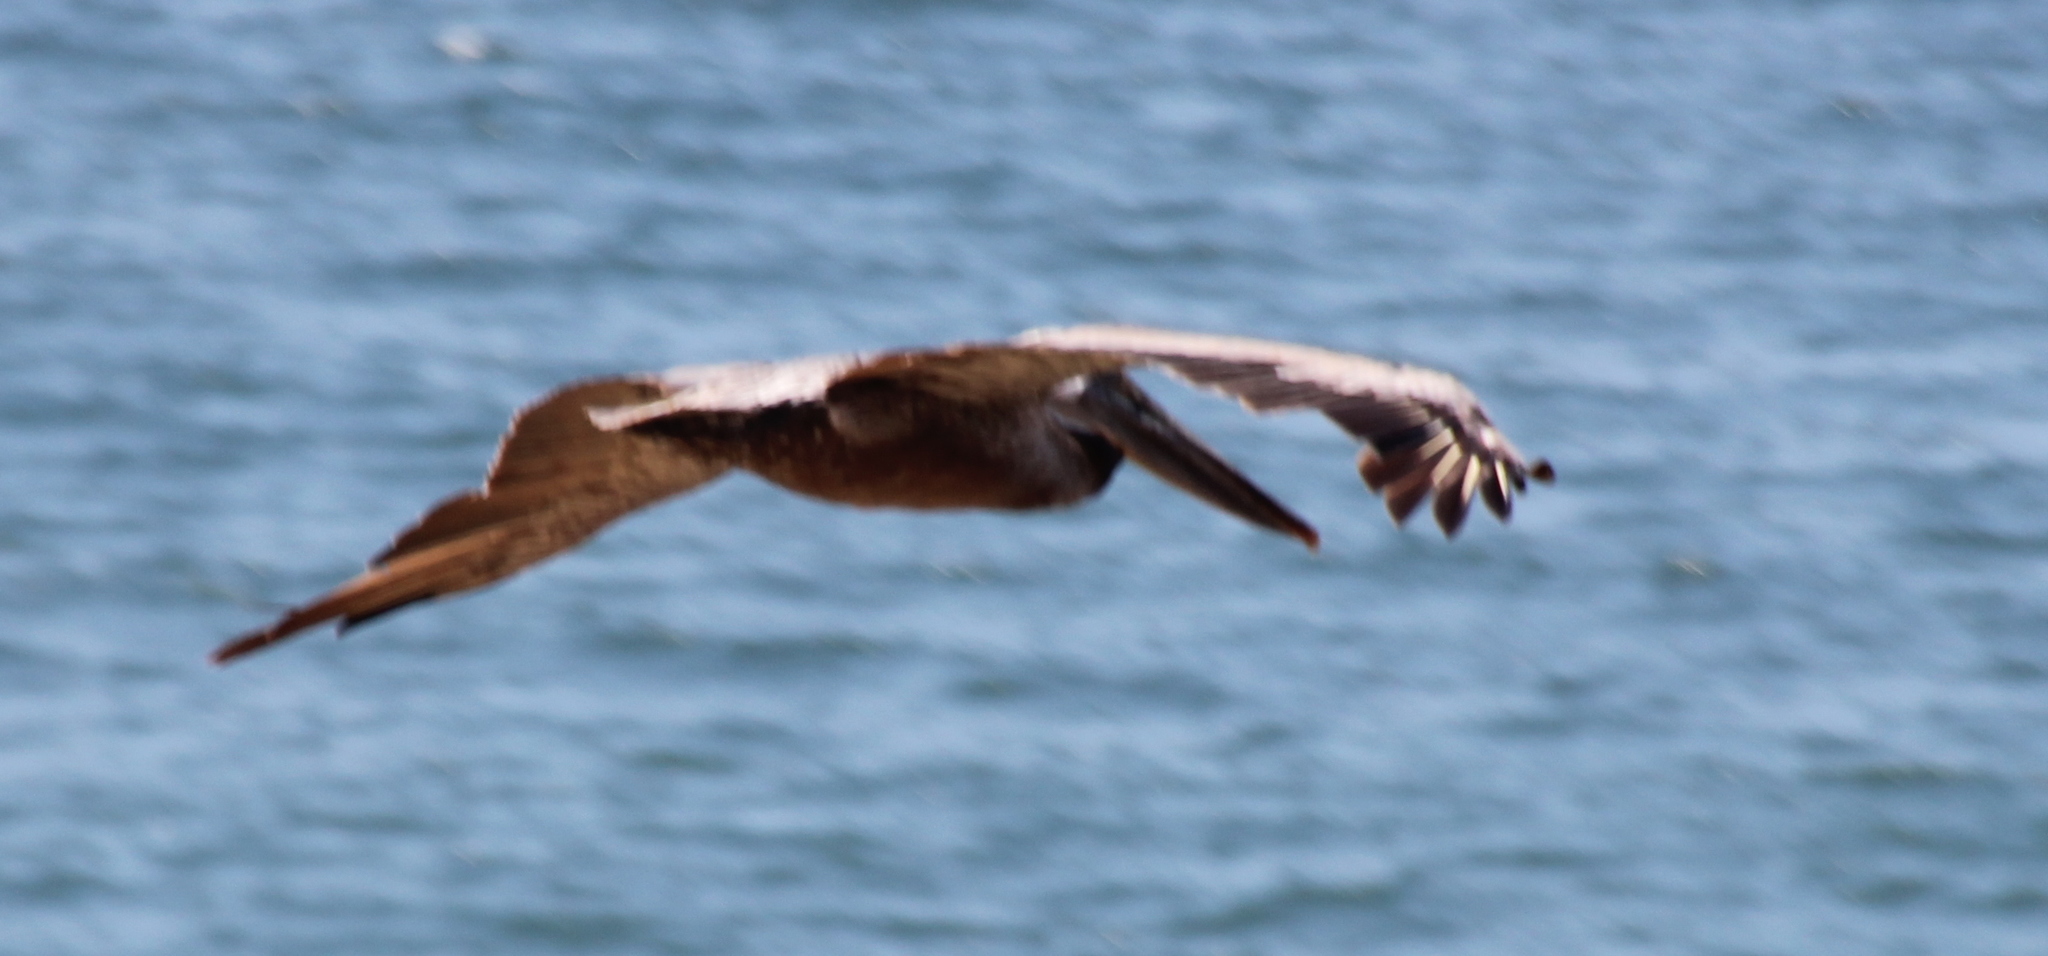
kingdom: Animalia
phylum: Chordata
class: Aves
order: Pelecaniformes
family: Pelecanidae
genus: Pelecanus
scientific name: Pelecanus occidentalis
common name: Brown pelican
